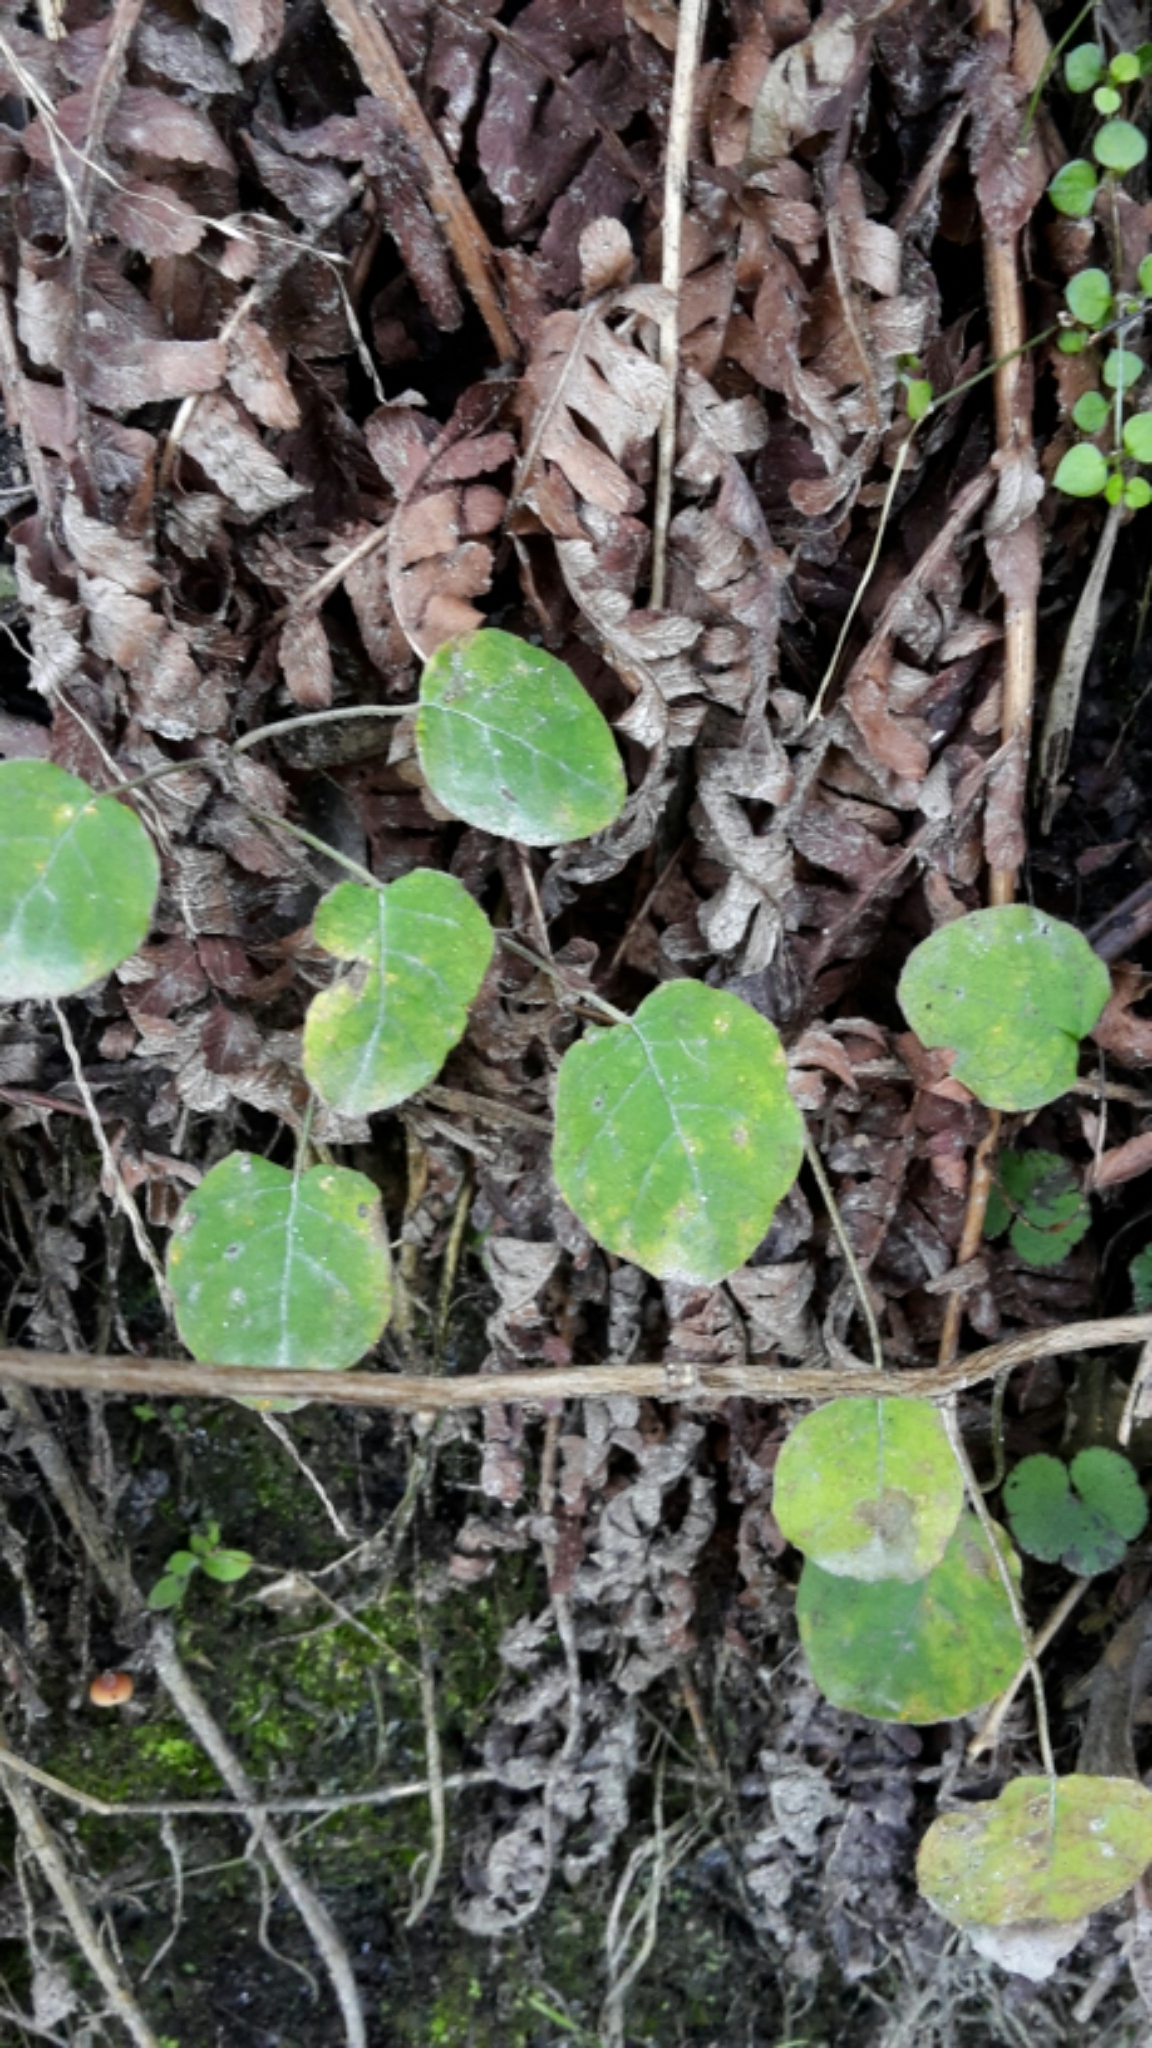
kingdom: Plantae
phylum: Tracheophyta
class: Magnoliopsida
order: Myrtales
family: Onagraceae
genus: Fuchsia
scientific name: Fuchsia perscandens
